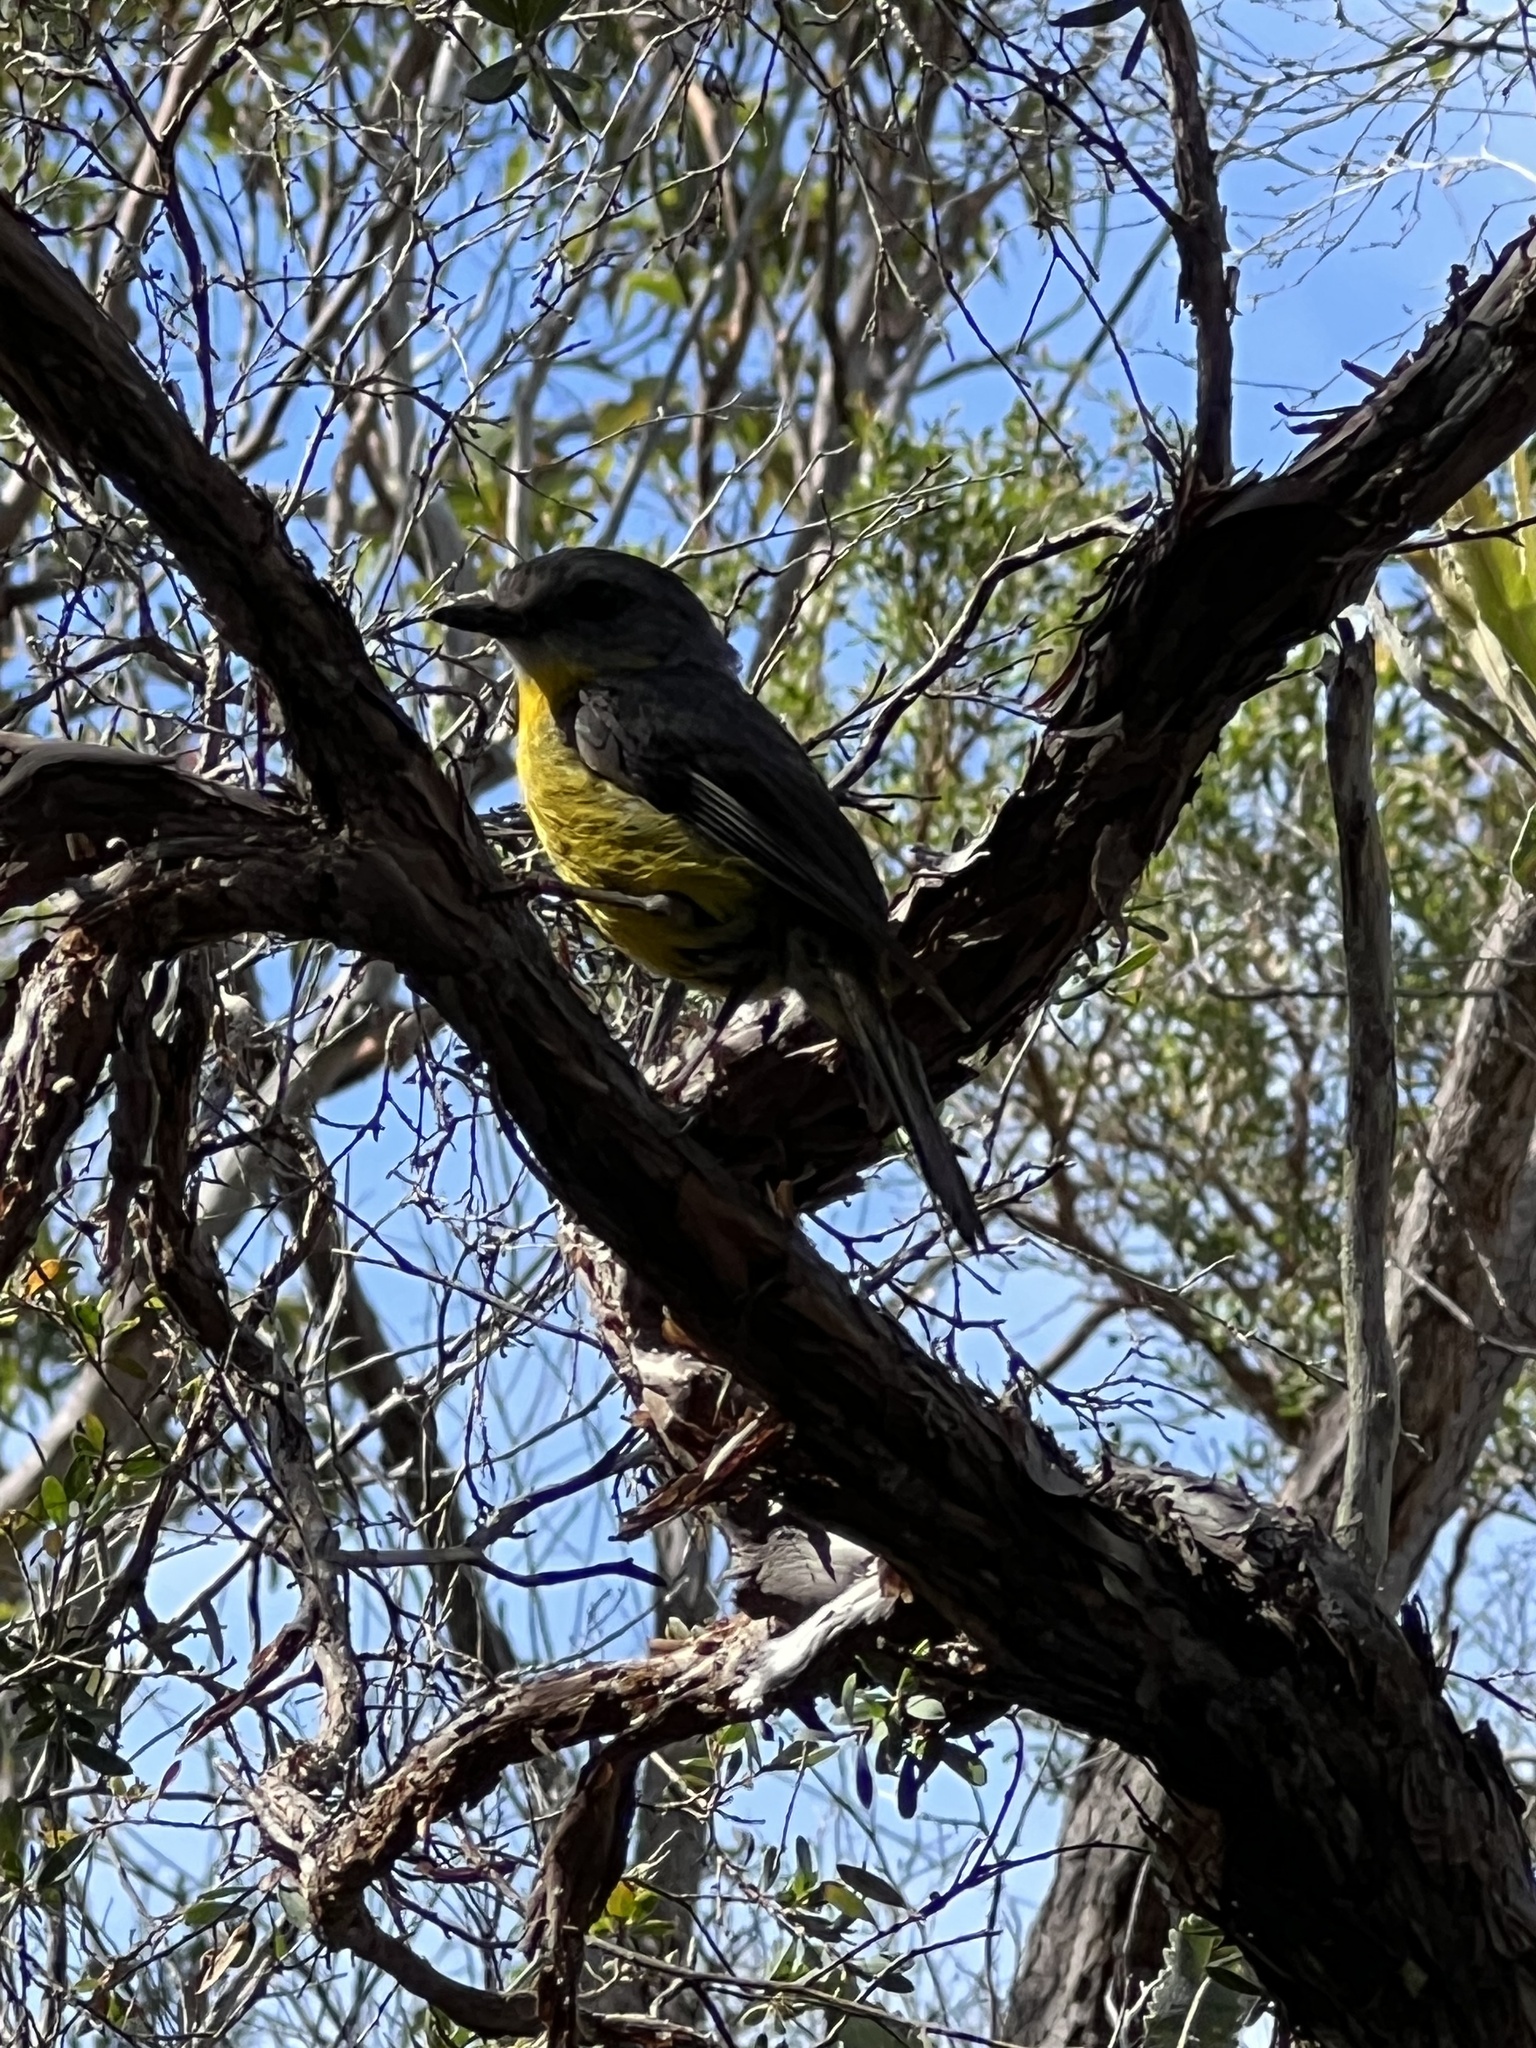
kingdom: Animalia
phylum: Chordata
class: Aves
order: Passeriformes
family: Petroicidae
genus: Eopsaltria
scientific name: Eopsaltria australis
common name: Eastern yellow robin
